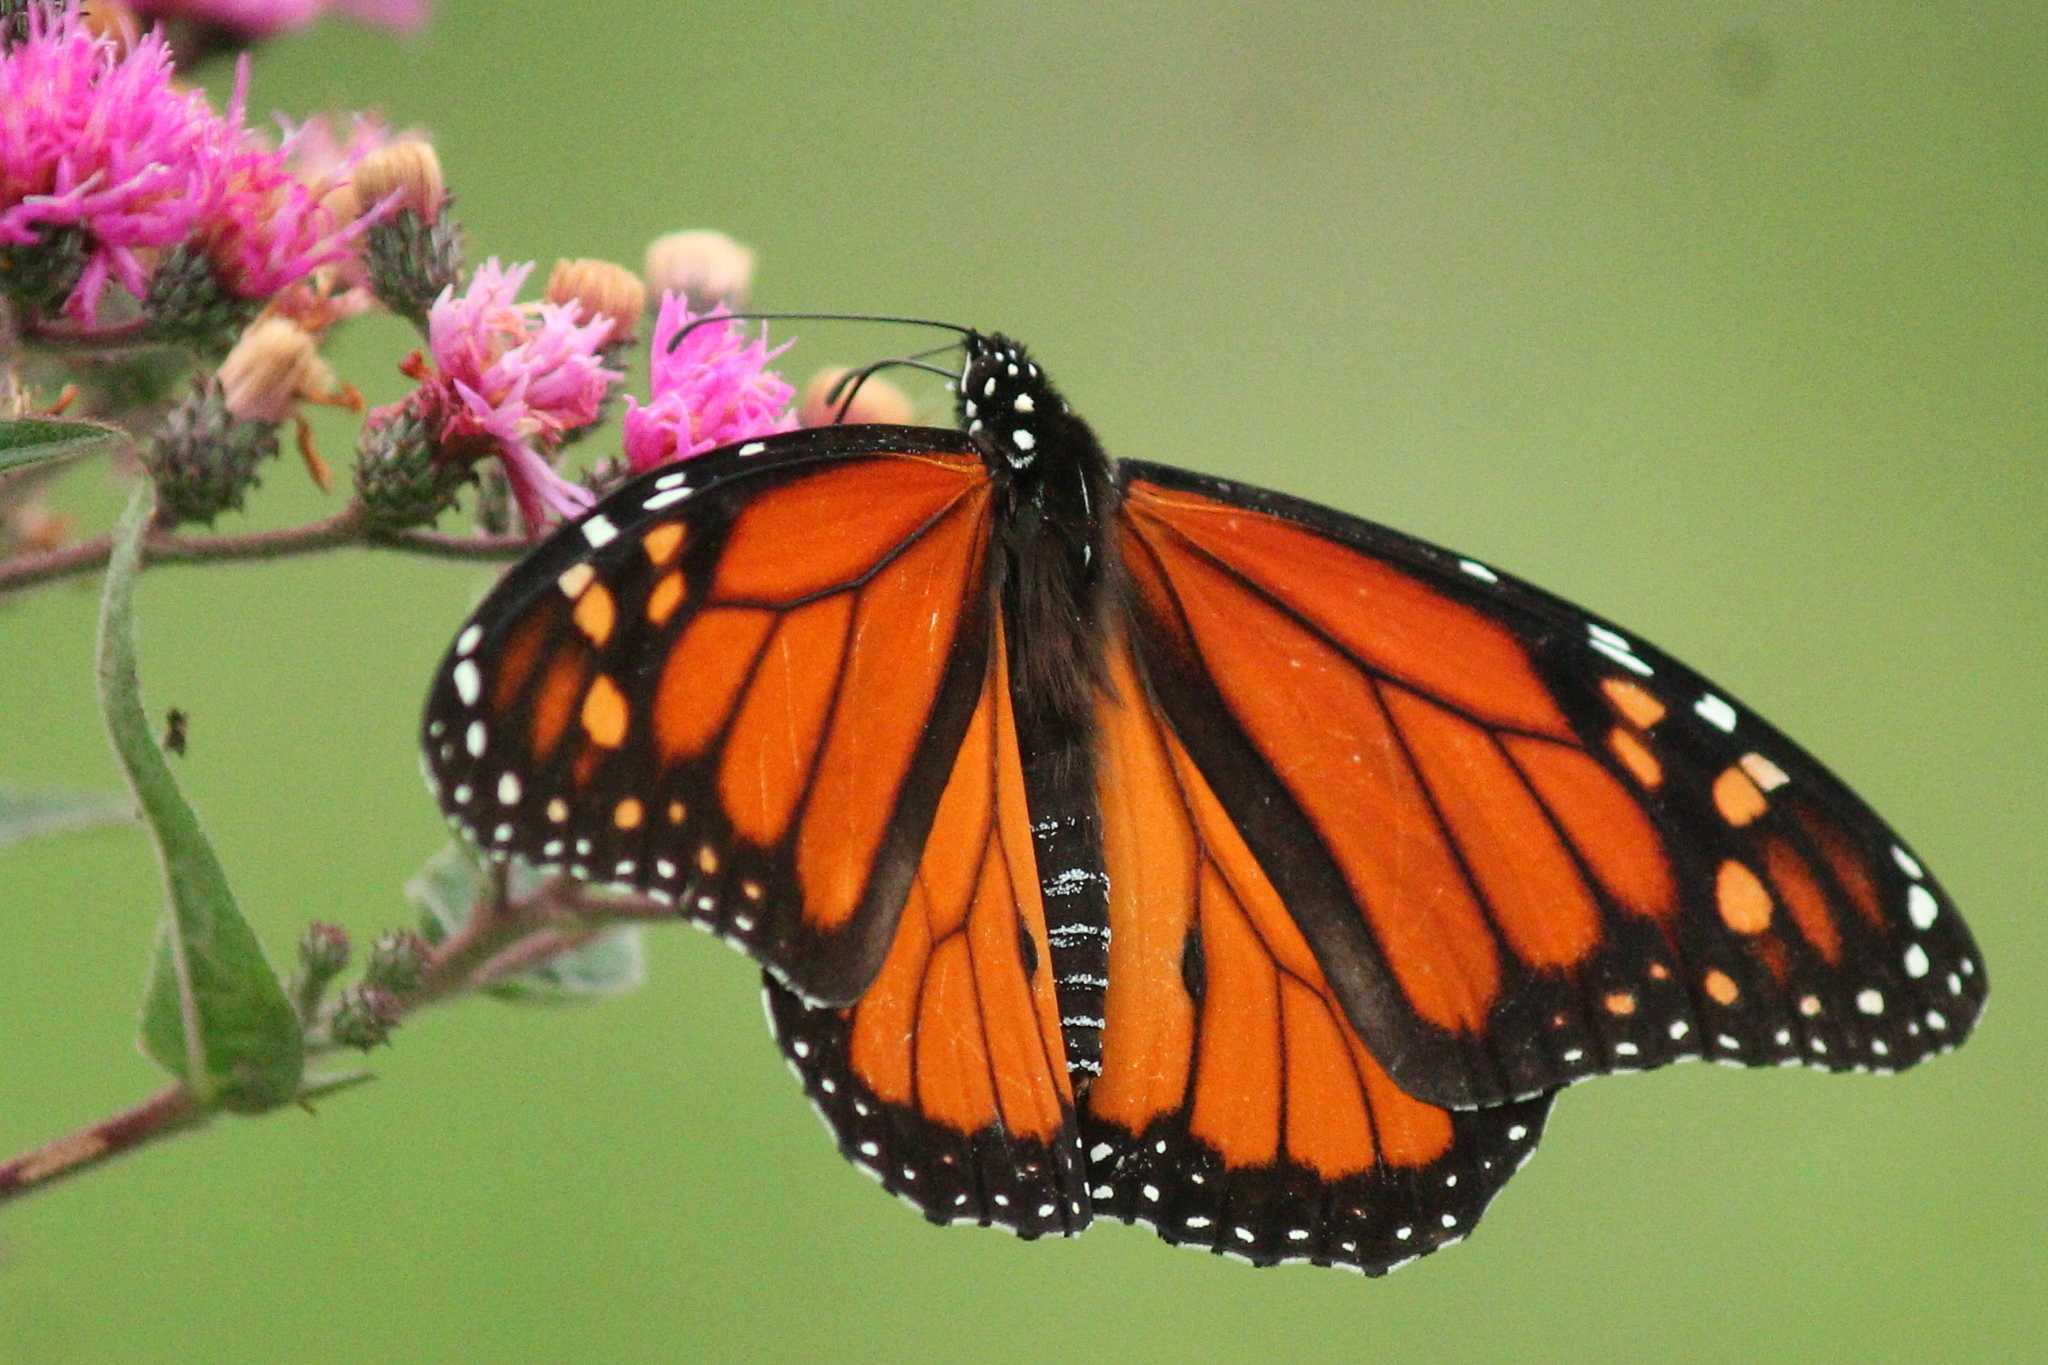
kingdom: Animalia
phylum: Arthropoda
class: Insecta
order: Lepidoptera
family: Nymphalidae
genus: Danaus
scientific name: Danaus plexippus
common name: Monarch
